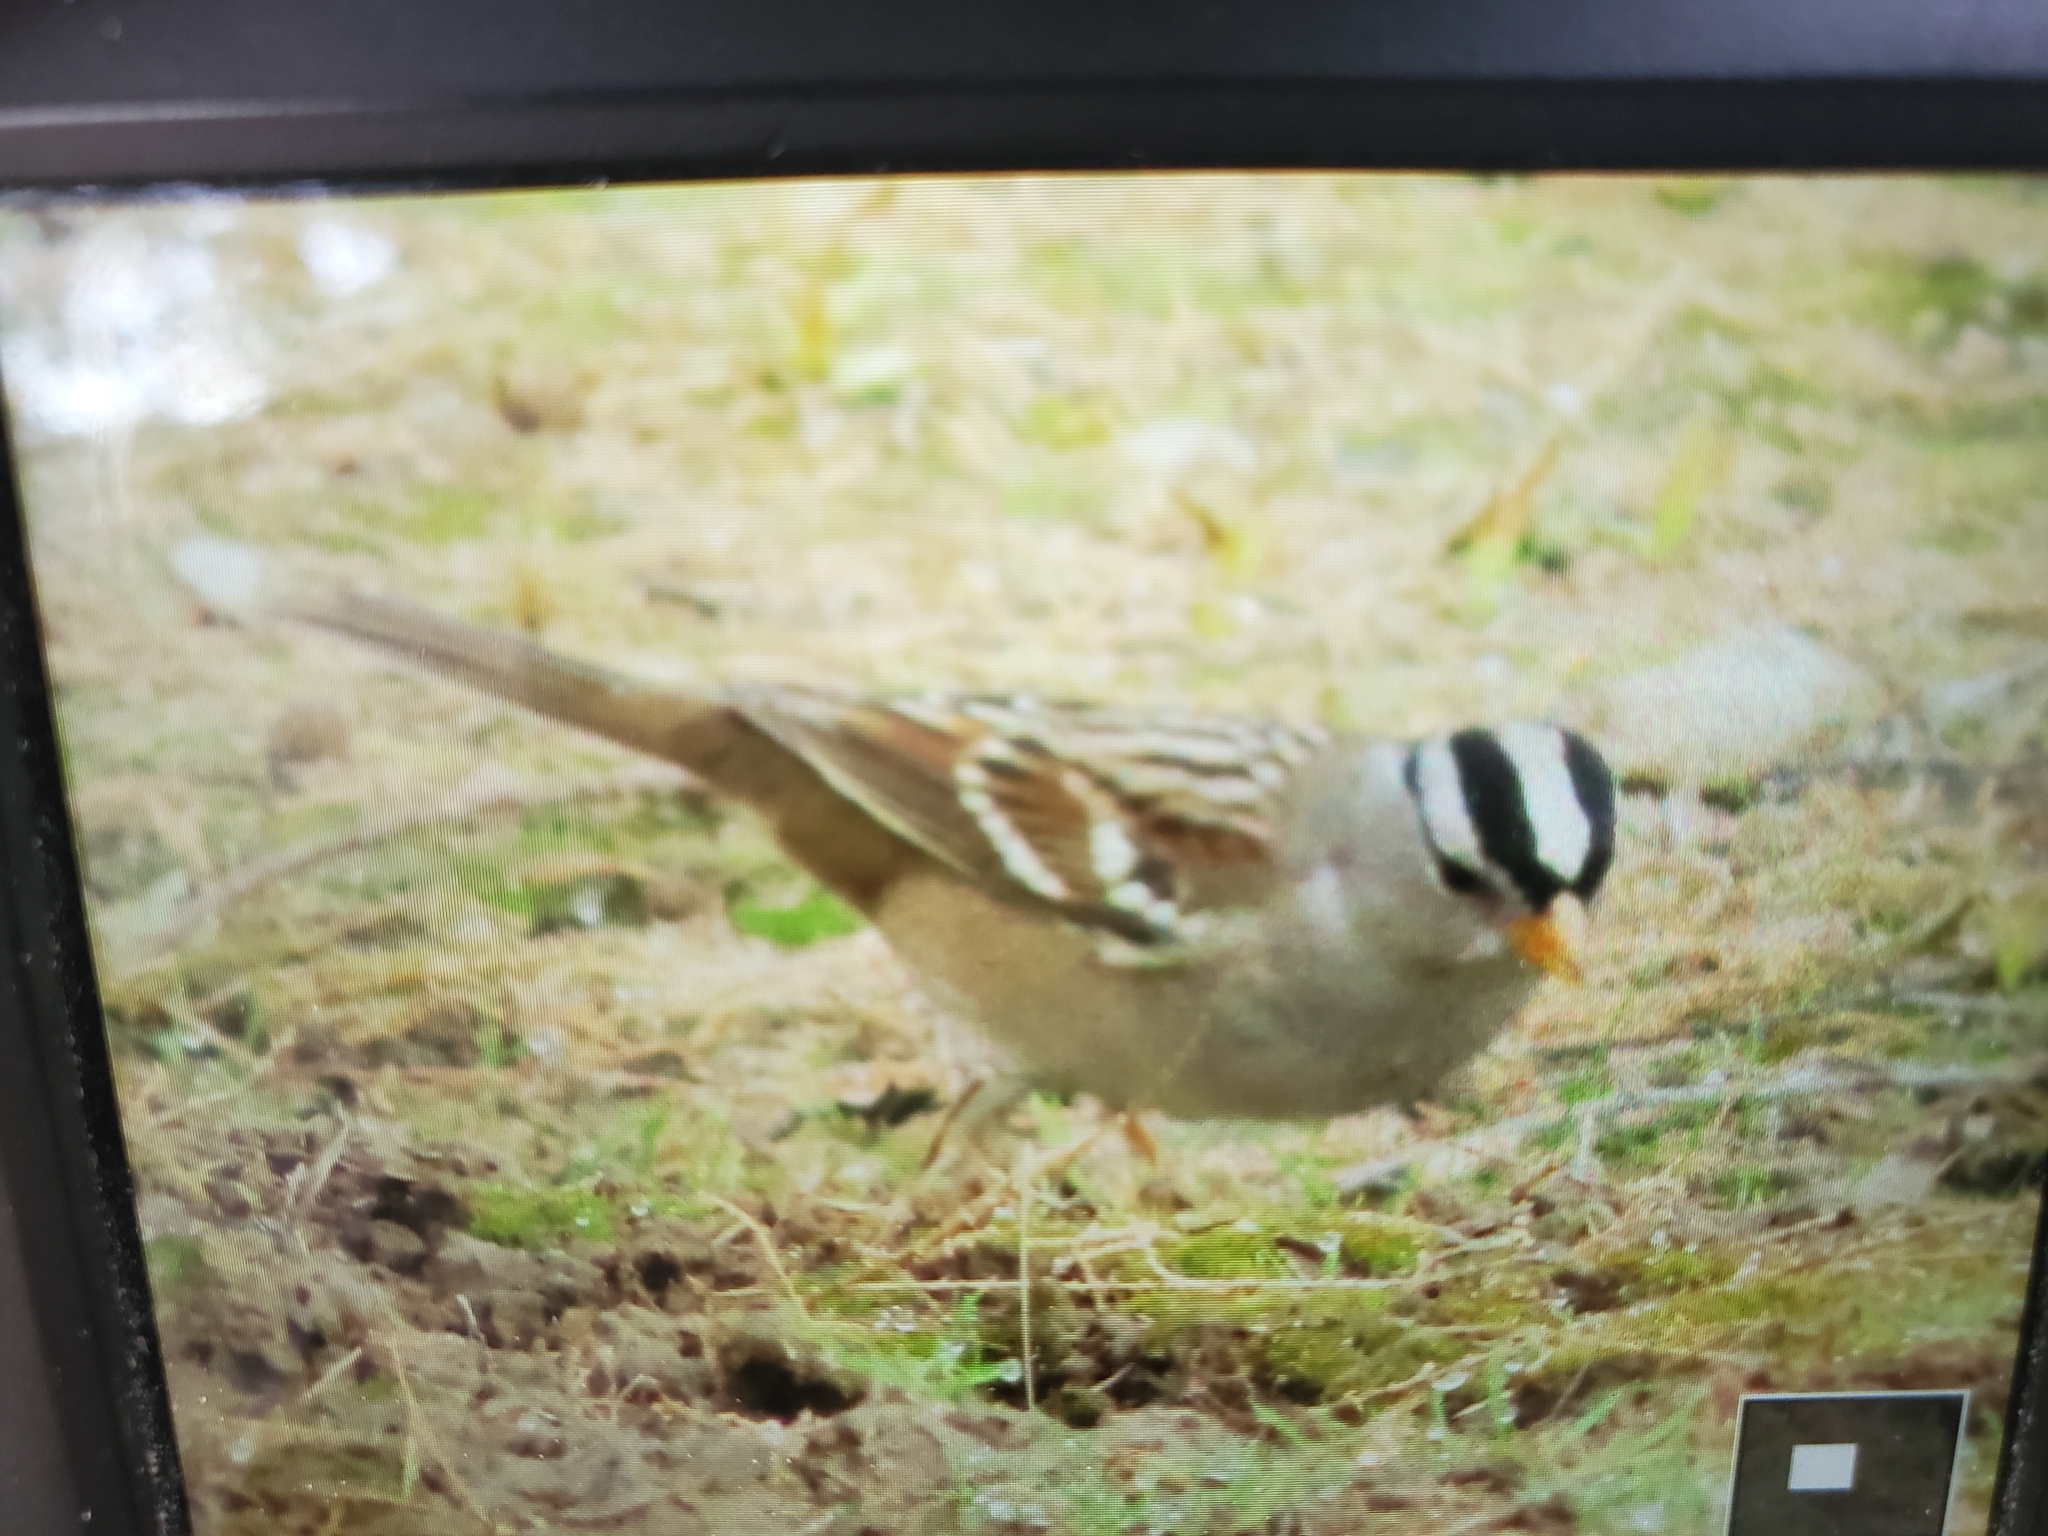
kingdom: Animalia
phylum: Chordata
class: Aves
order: Passeriformes
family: Passerellidae
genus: Zonotrichia
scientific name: Zonotrichia leucophrys
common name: White-crowned sparrow
